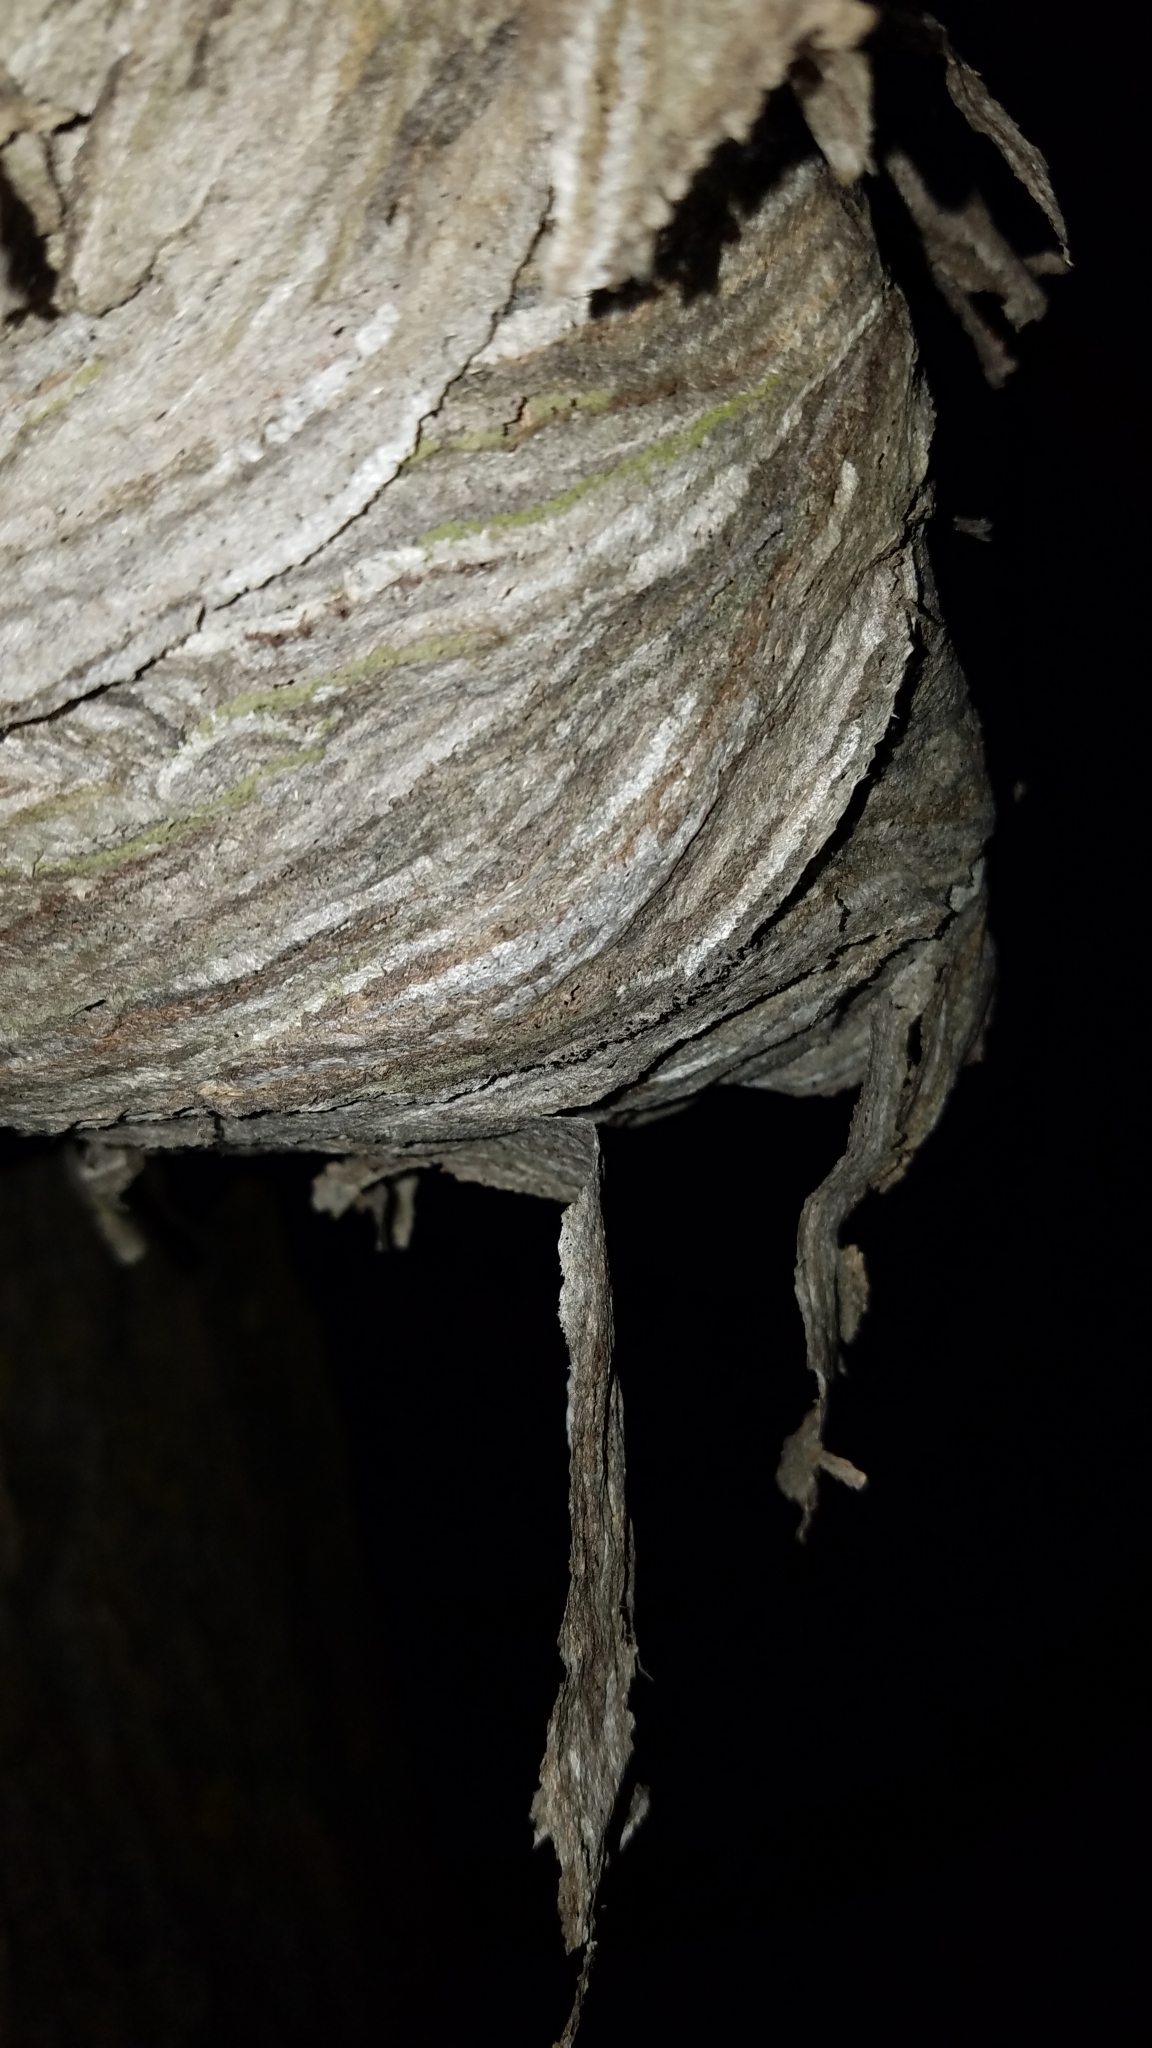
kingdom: Animalia
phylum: Arthropoda
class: Insecta
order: Hymenoptera
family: Vespidae
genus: Dolichovespula
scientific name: Dolichovespula
